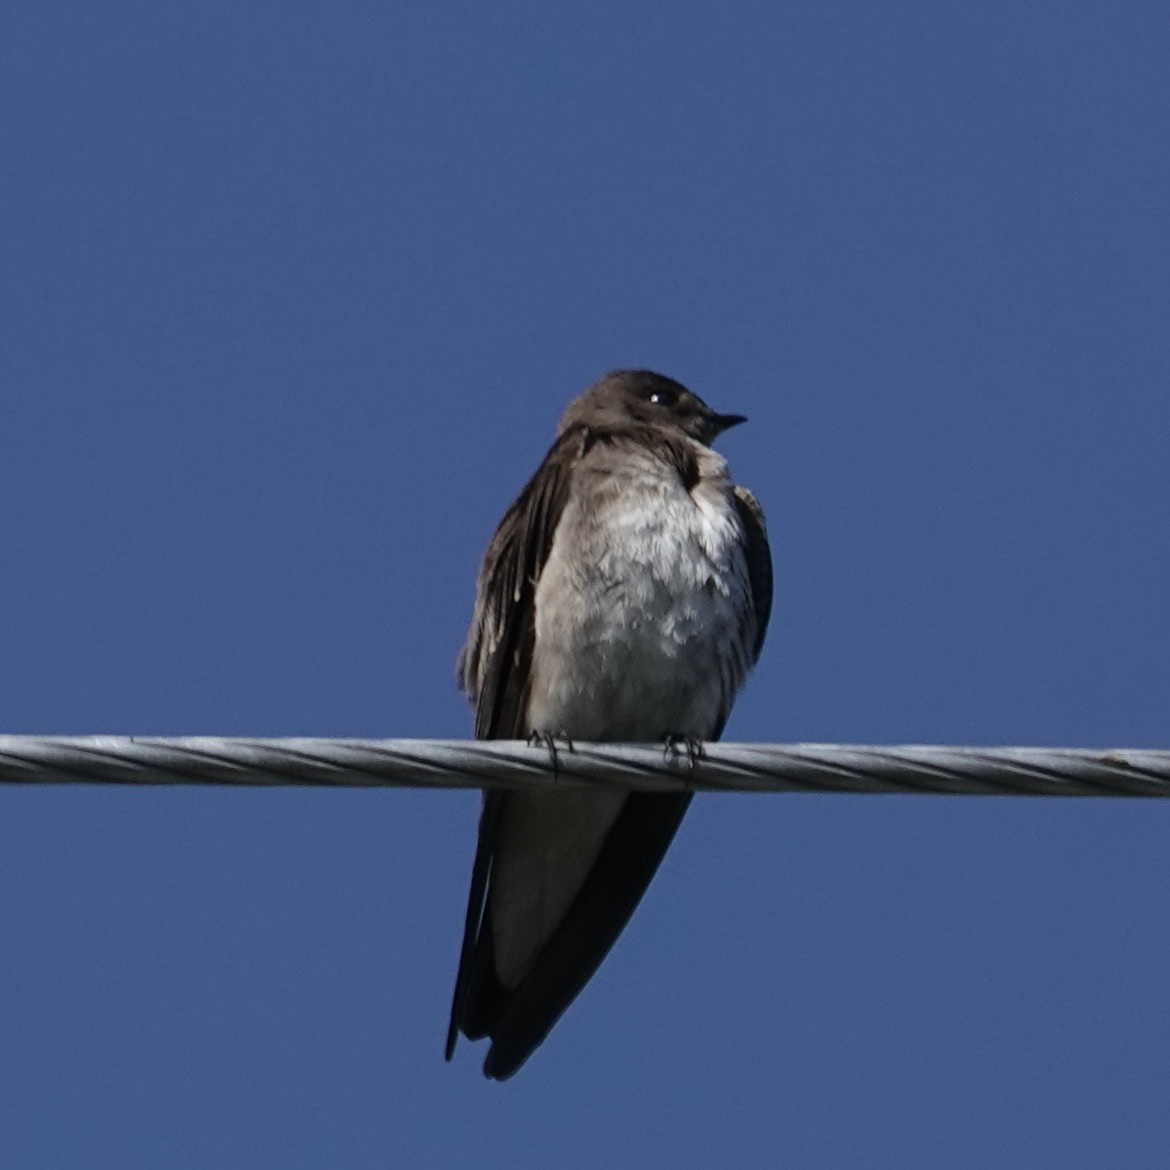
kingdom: Animalia
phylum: Chordata
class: Aves
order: Passeriformes
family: Hirundinidae
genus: Stelgidopteryx
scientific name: Stelgidopteryx serripennis
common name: Northern rough-winged swallow
